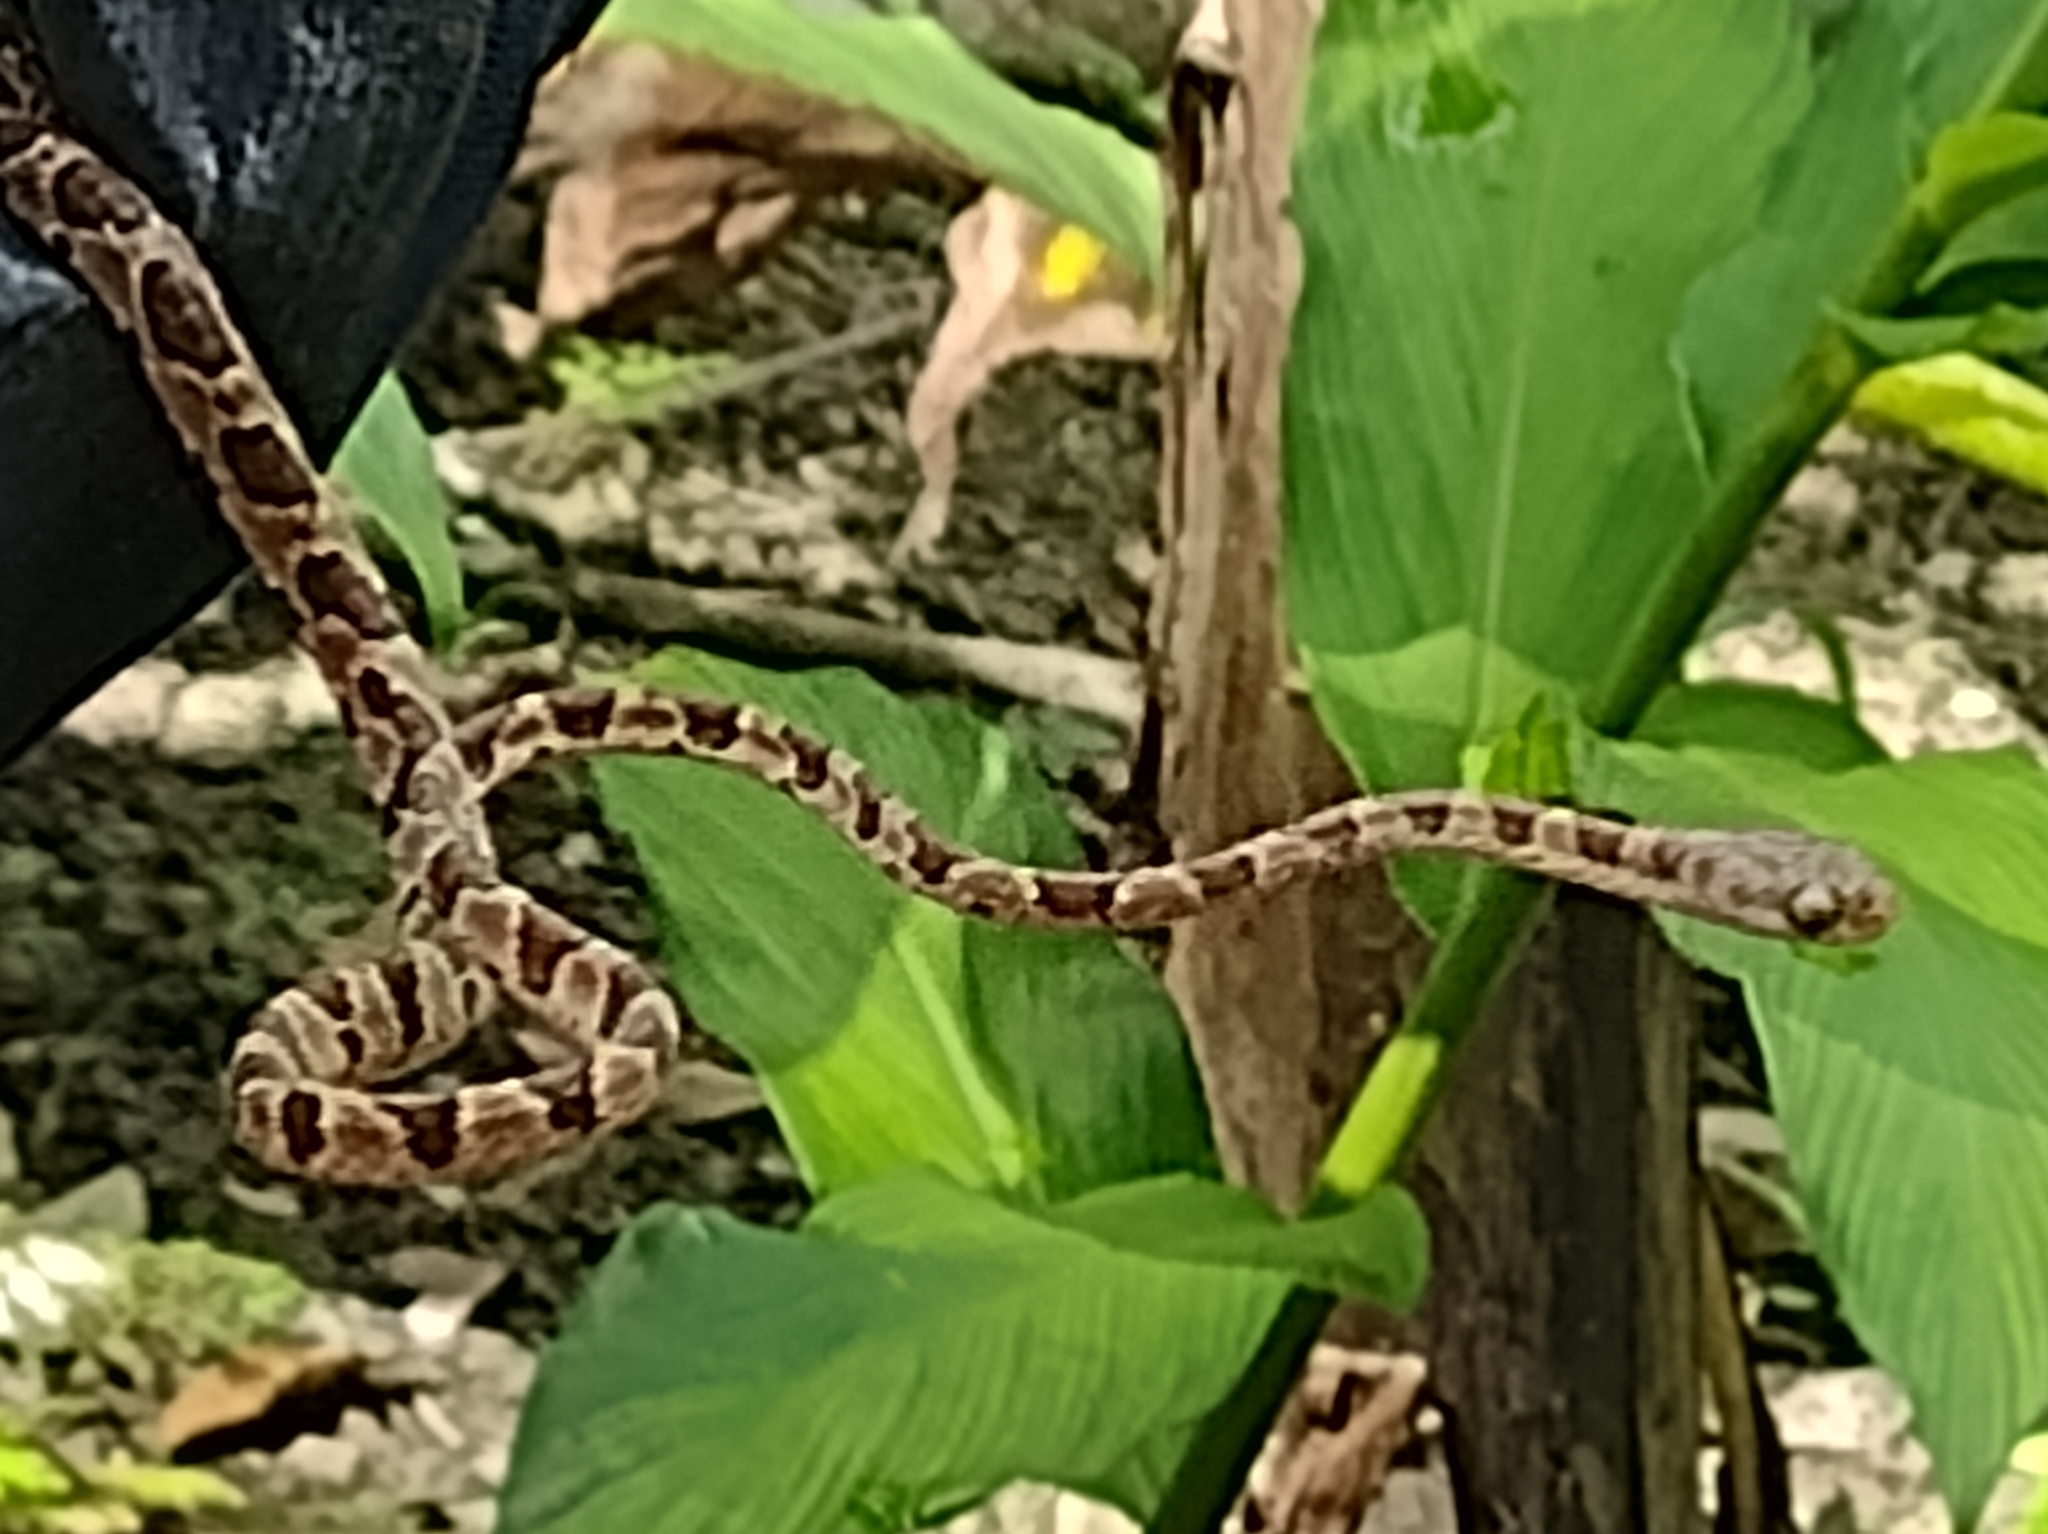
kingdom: Animalia
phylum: Chordata
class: Squamata
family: Colubridae
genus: Imantodes
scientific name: Imantodes cenchoa
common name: Blunthead tree snake
